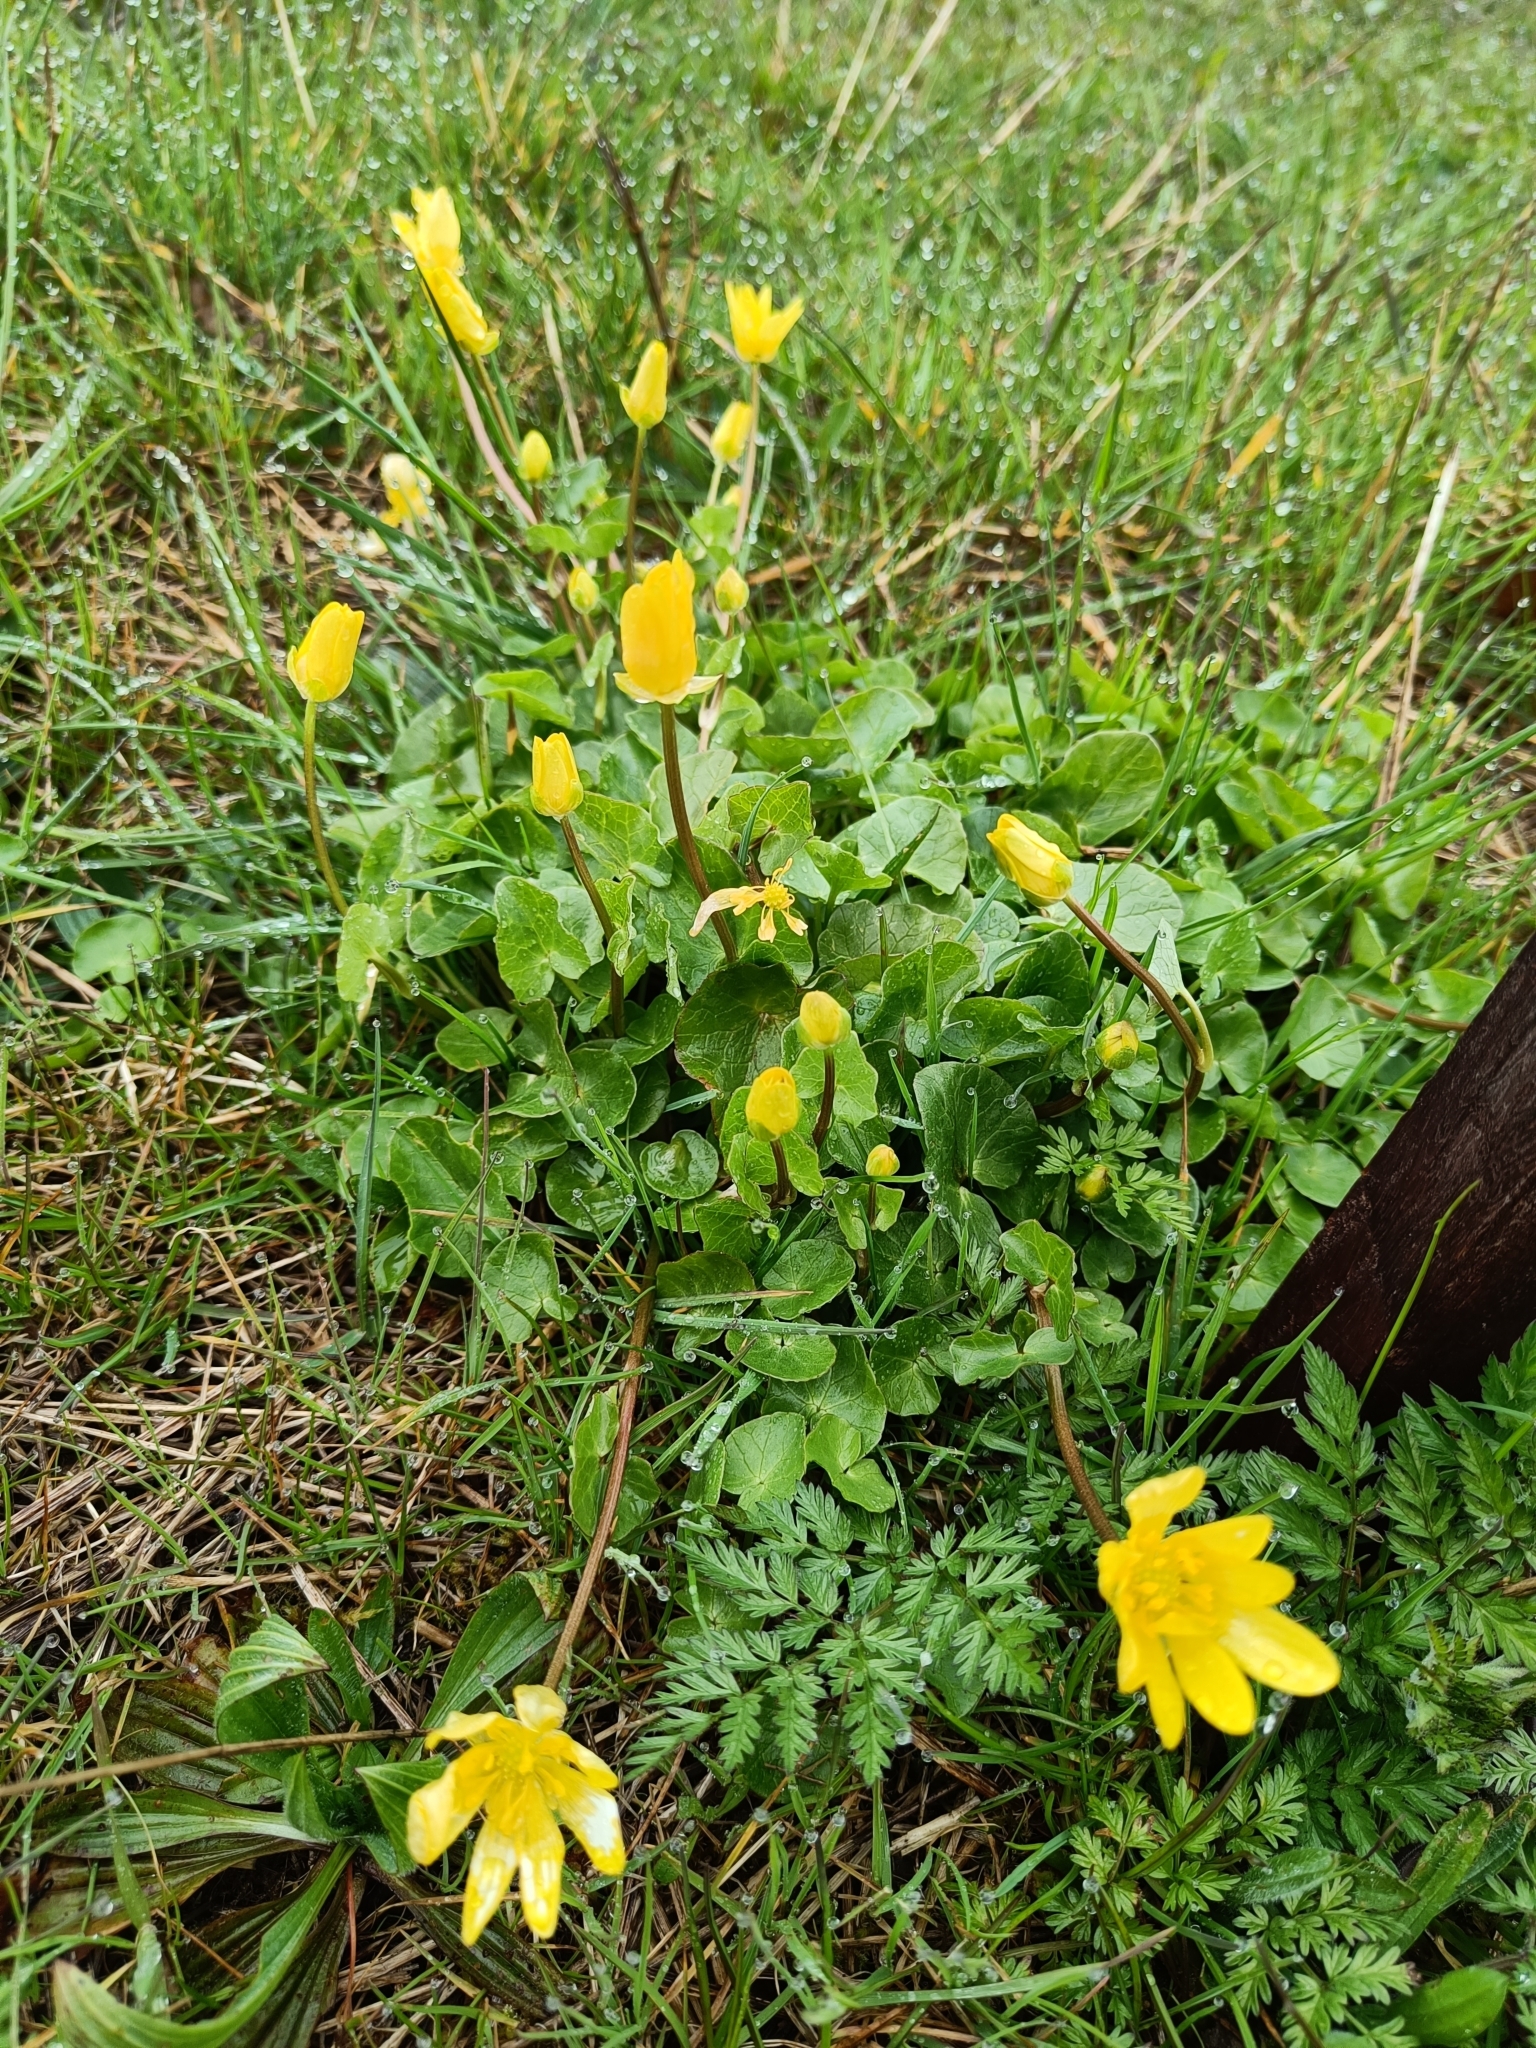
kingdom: Plantae
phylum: Tracheophyta
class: Magnoliopsida
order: Ranunculales
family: Ranunculaceae
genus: Ficaria
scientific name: Ficaria verna
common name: Lesser celandine
